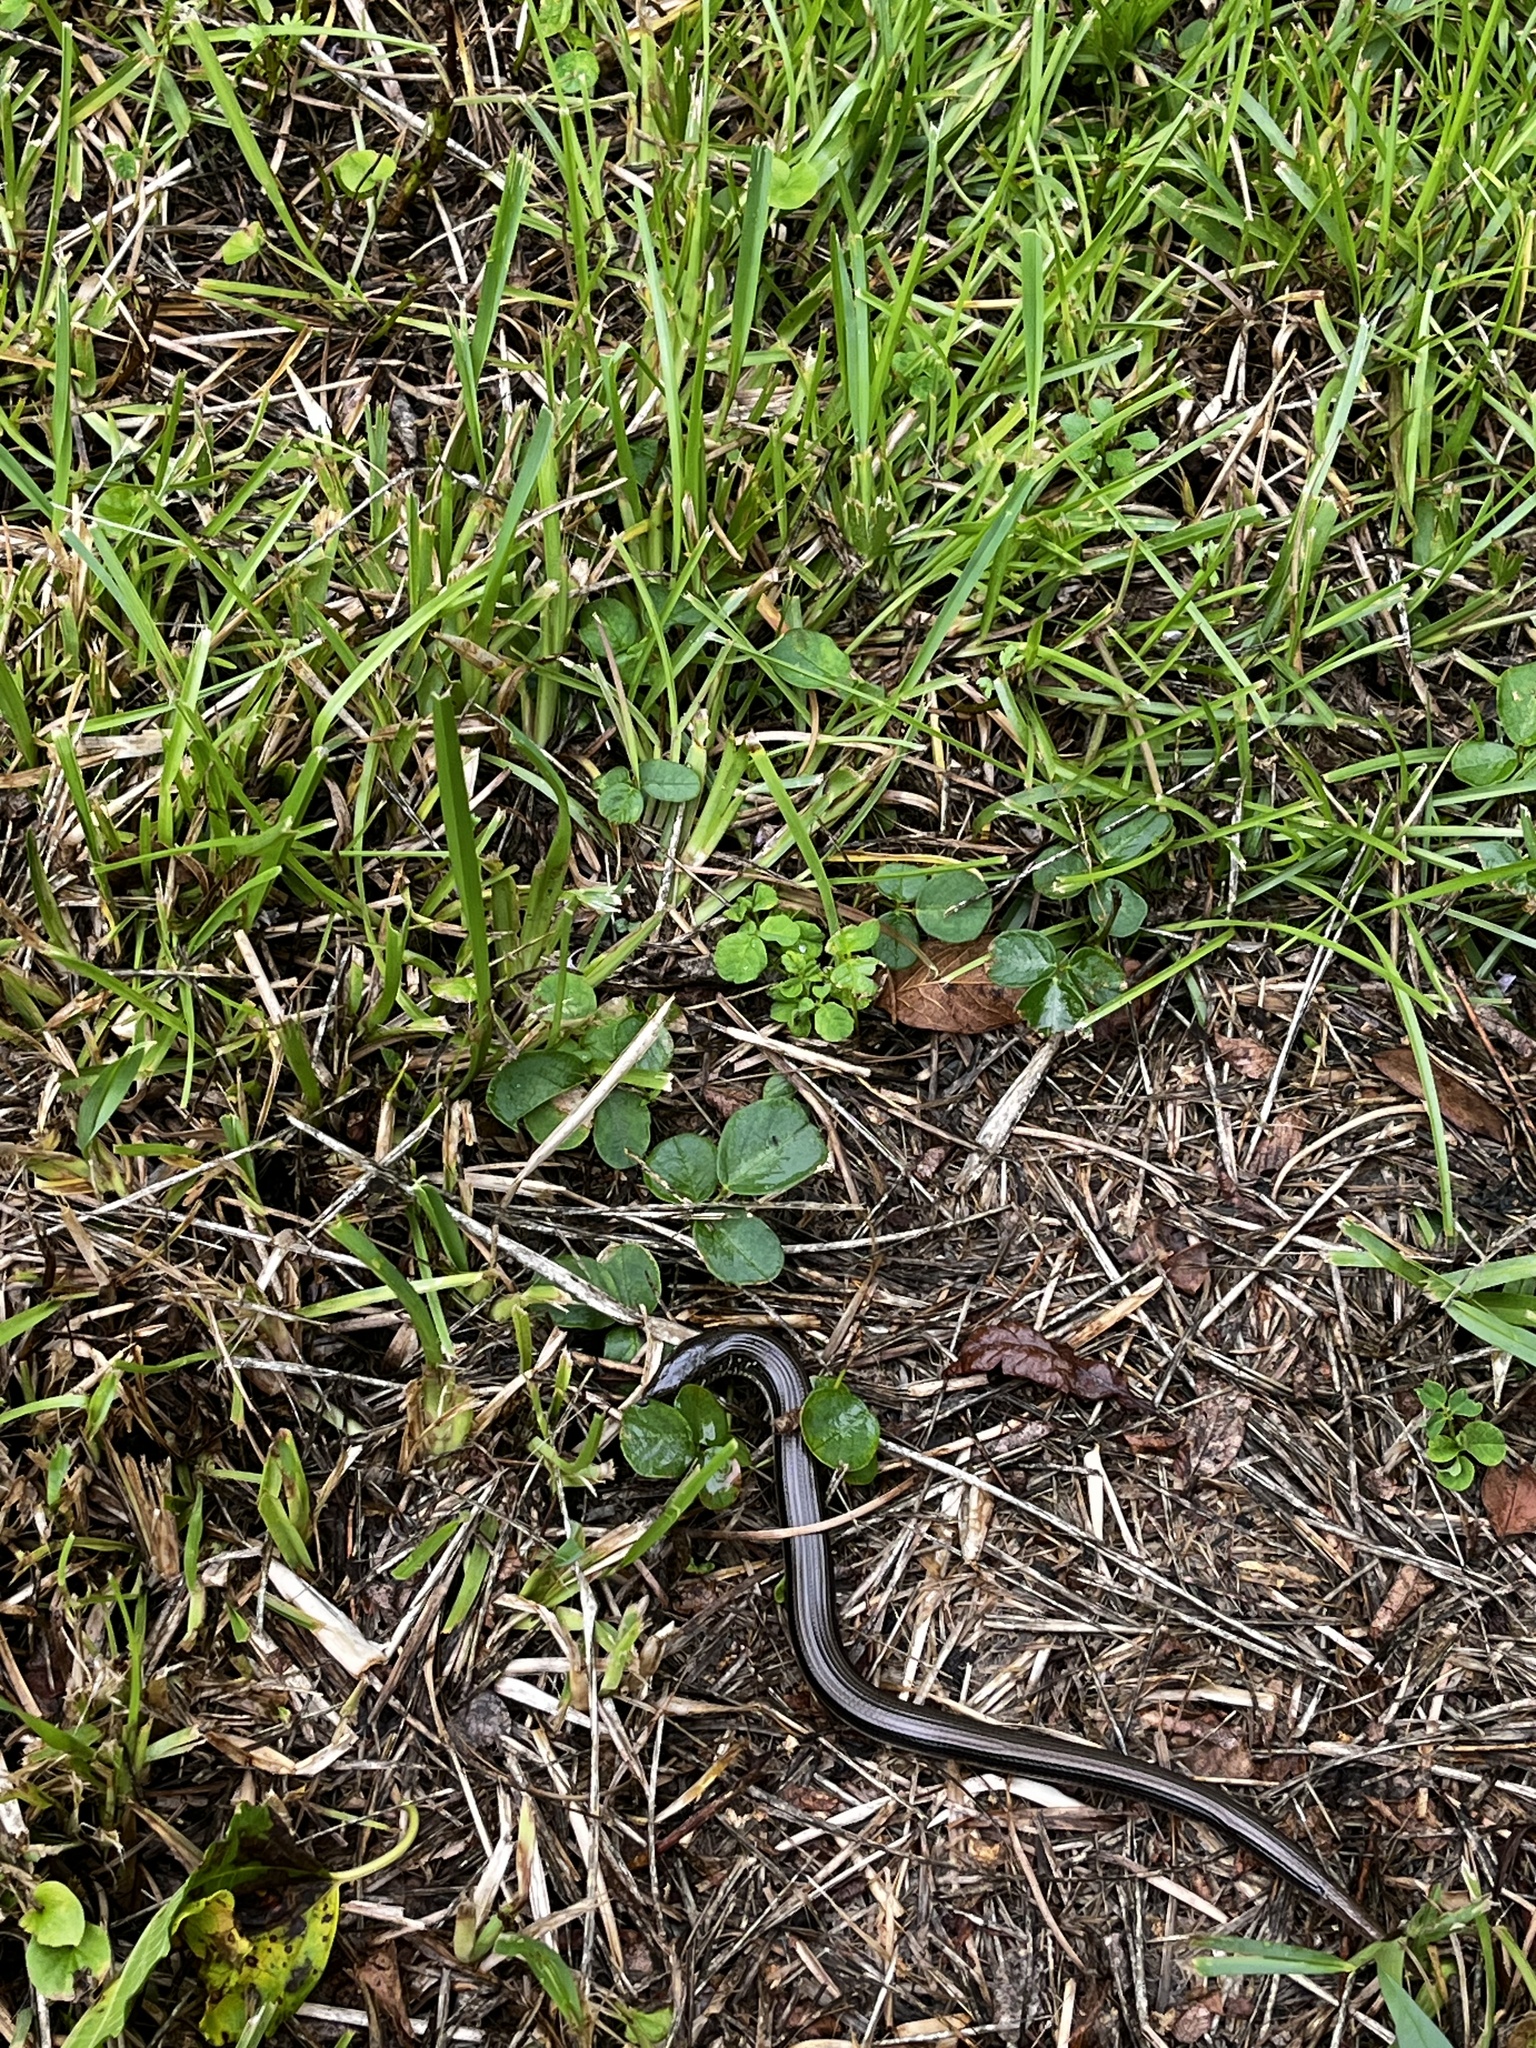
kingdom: Animalia
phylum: Chordata
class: Squamata
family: Anguidae
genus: Ophisaurus
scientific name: Ophisaurus ventralis
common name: Eastern glass lizard
